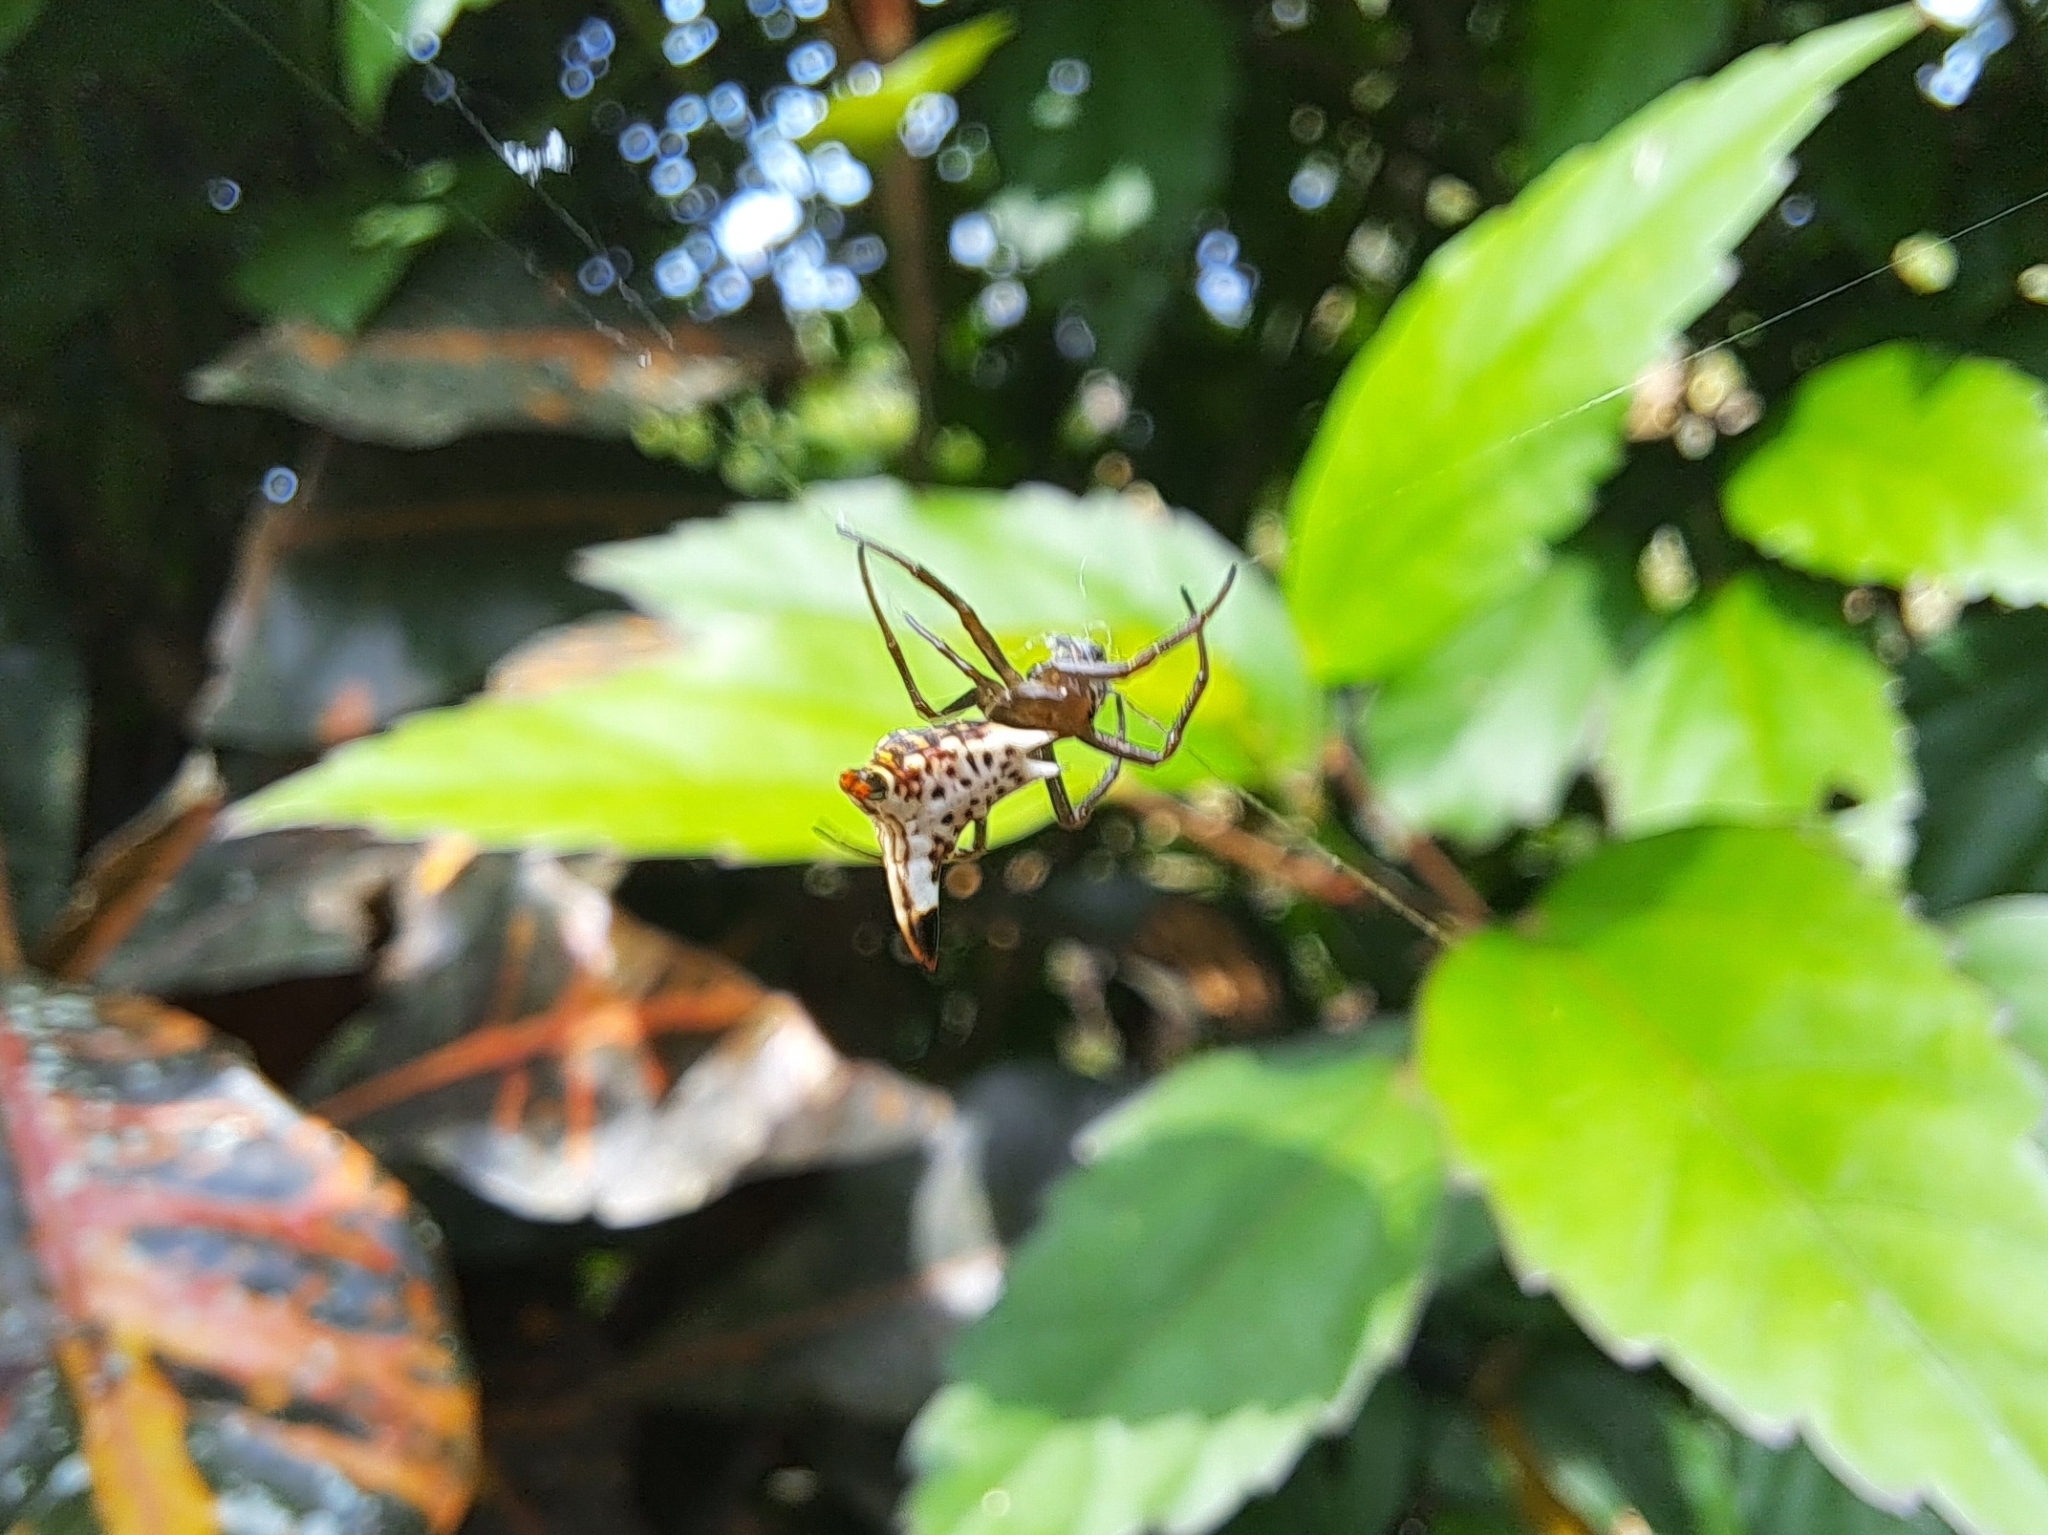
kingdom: Animalia
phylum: Arthropoda
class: Arachnida
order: Araneae
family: Araneidae
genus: Micrathena
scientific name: Micrathena lucasi
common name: Orb weavers
